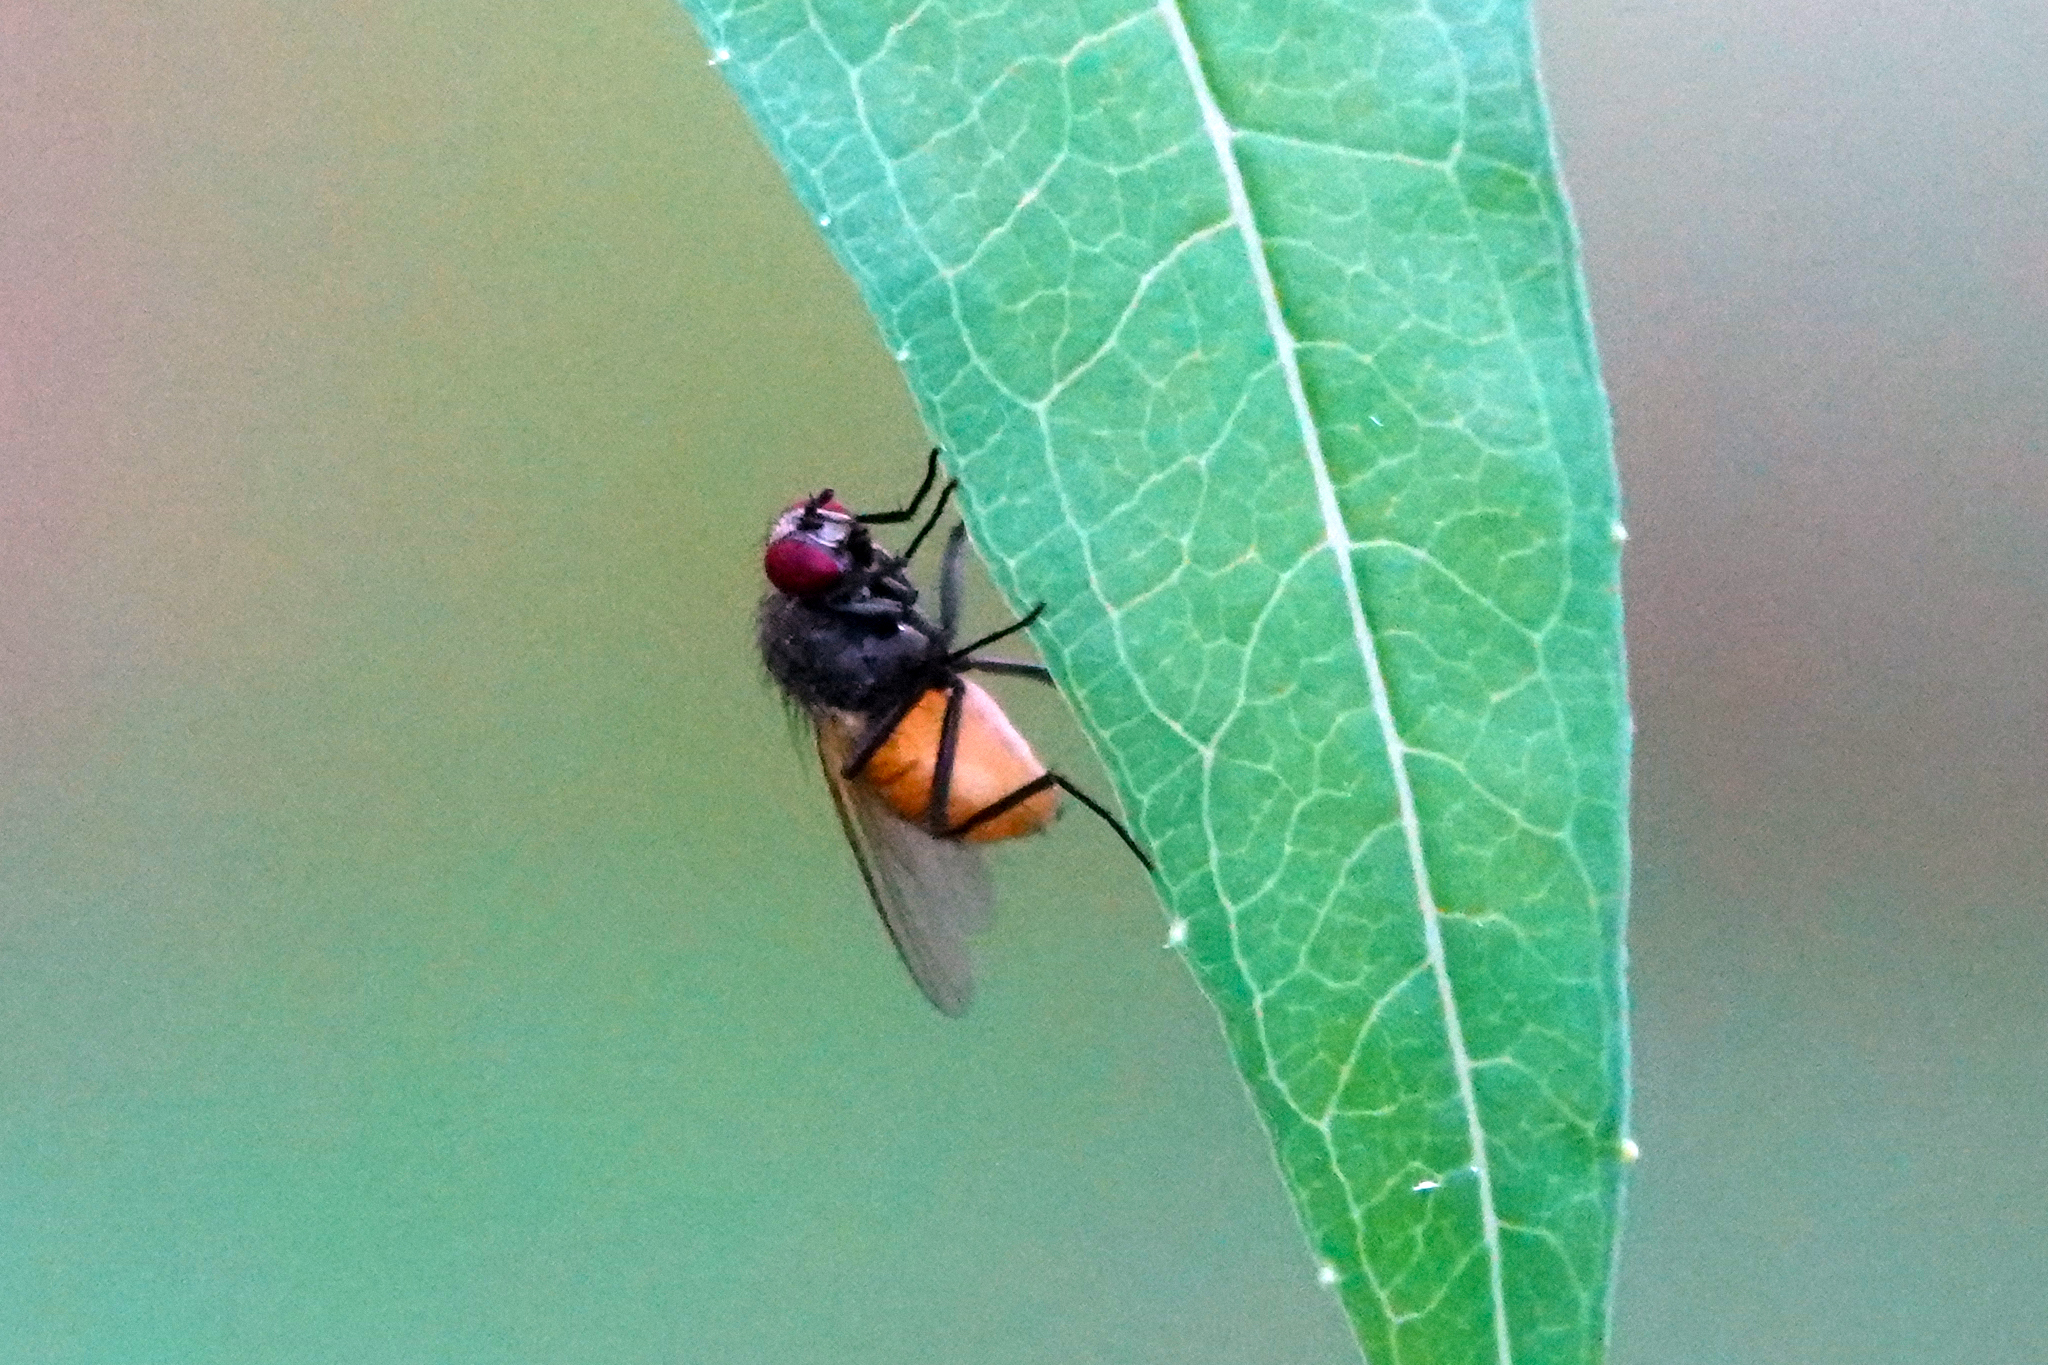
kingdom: Animalia
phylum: Arthropoda
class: Insecta
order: Diptera
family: Muscidae
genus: Thricops
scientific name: Thricops semicinereus
